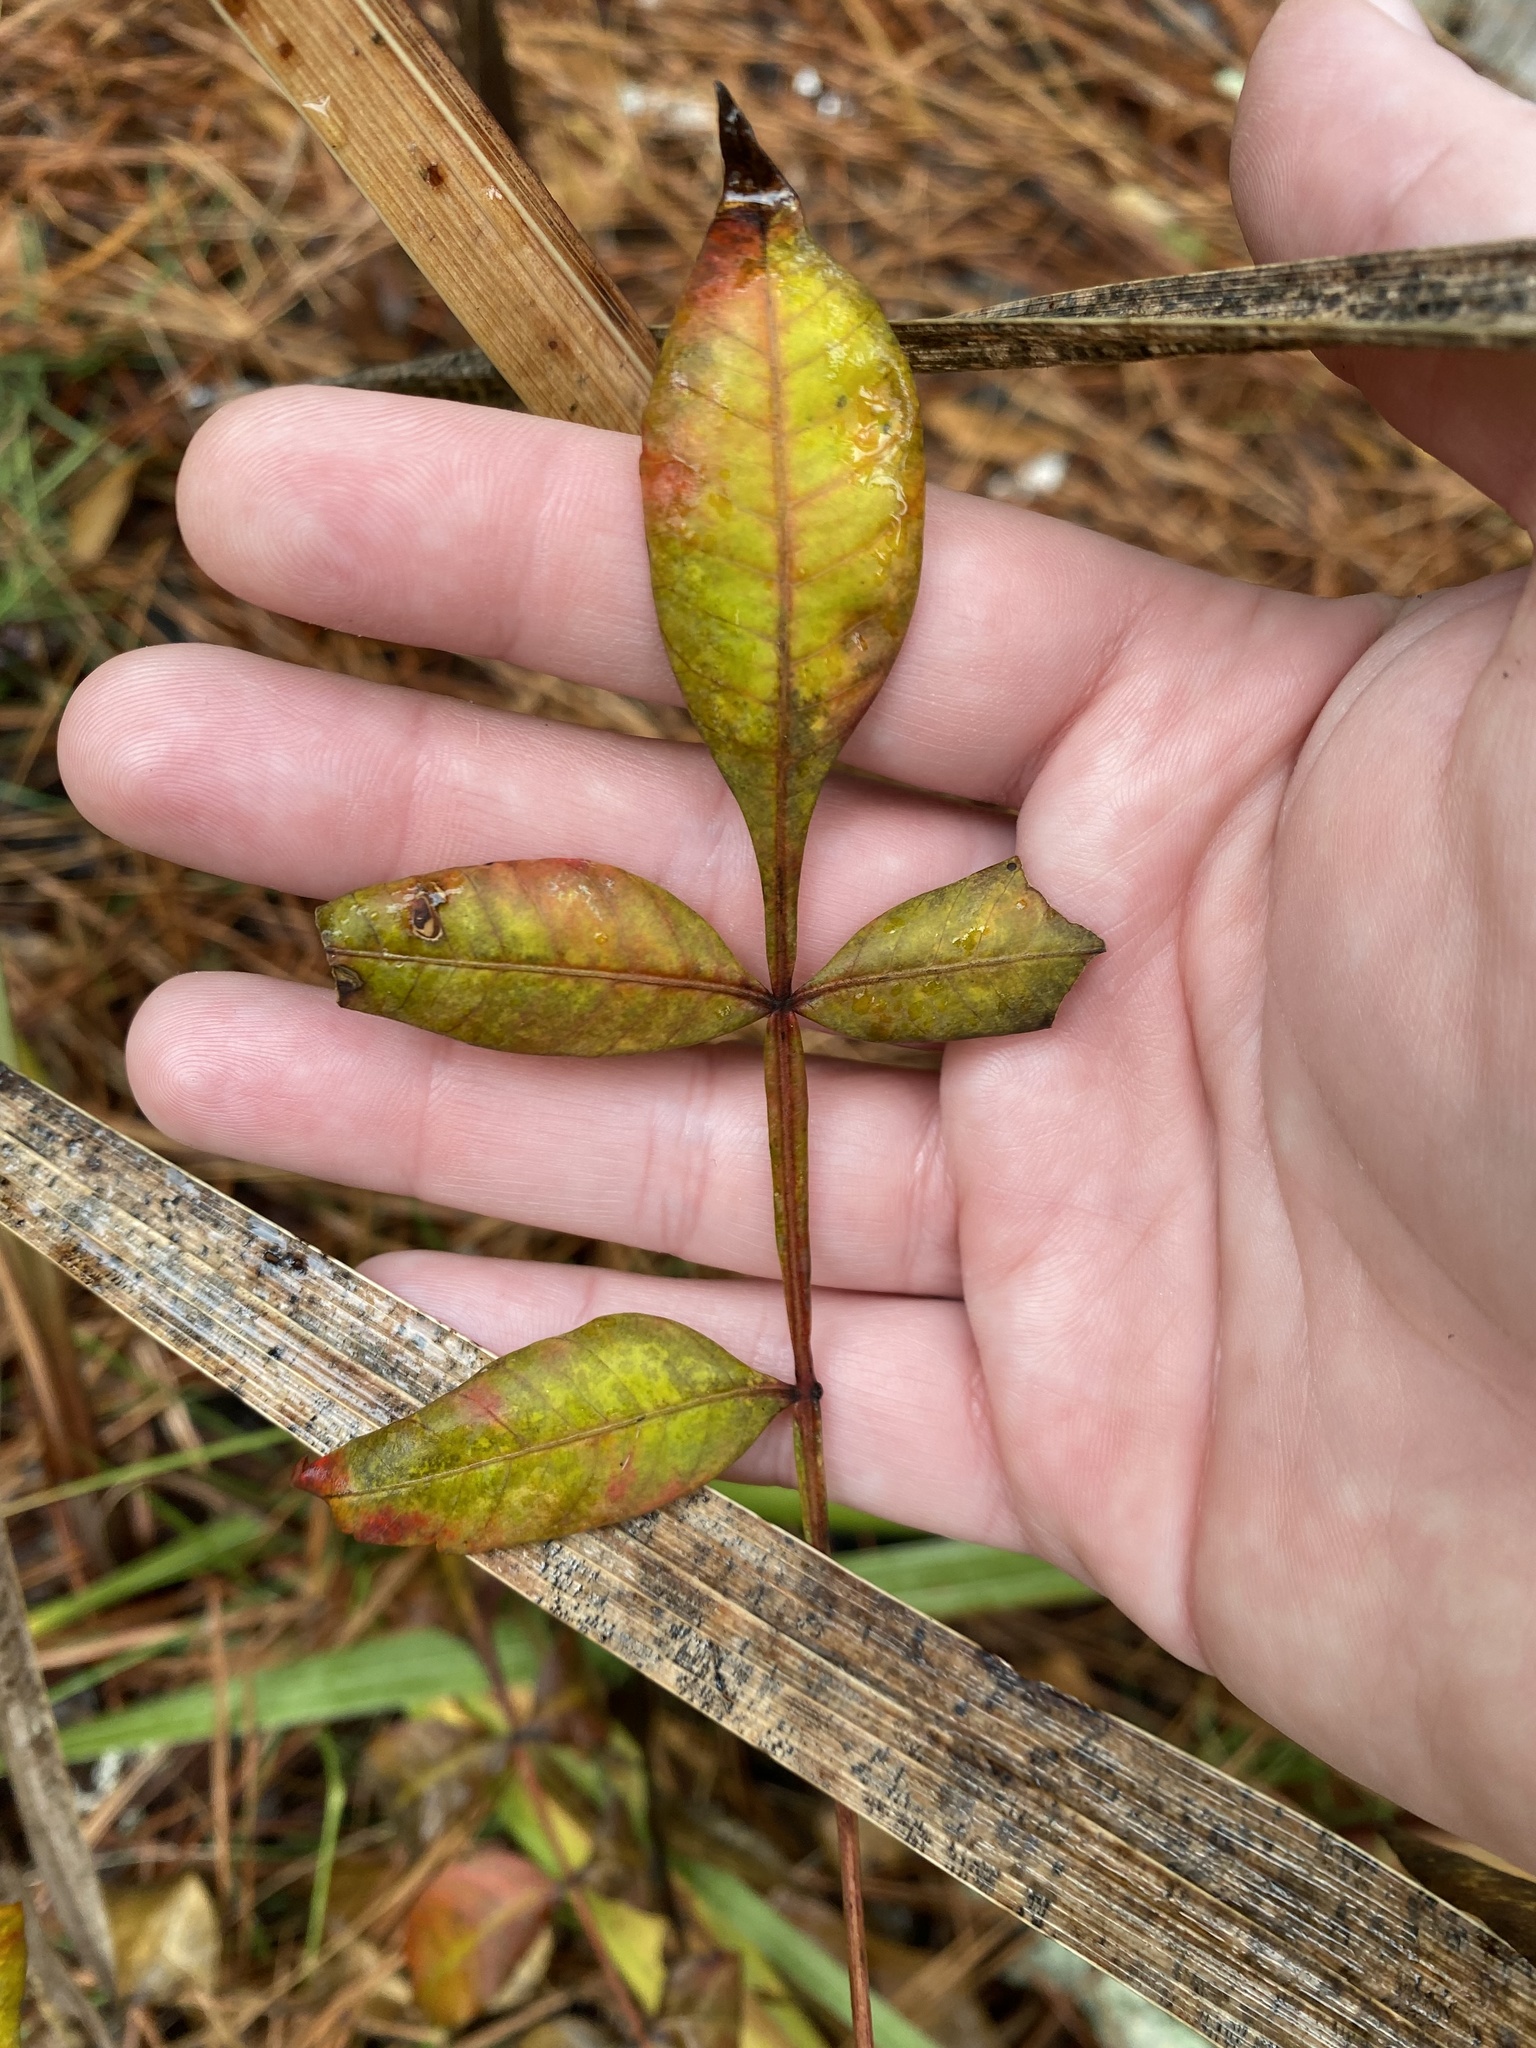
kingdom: Plantae
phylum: Tracheophyta
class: Magnoliopsida
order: Sapindales
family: Anacardiaceae
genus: Rhus
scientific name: Rhus copallina
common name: Shining sumac
